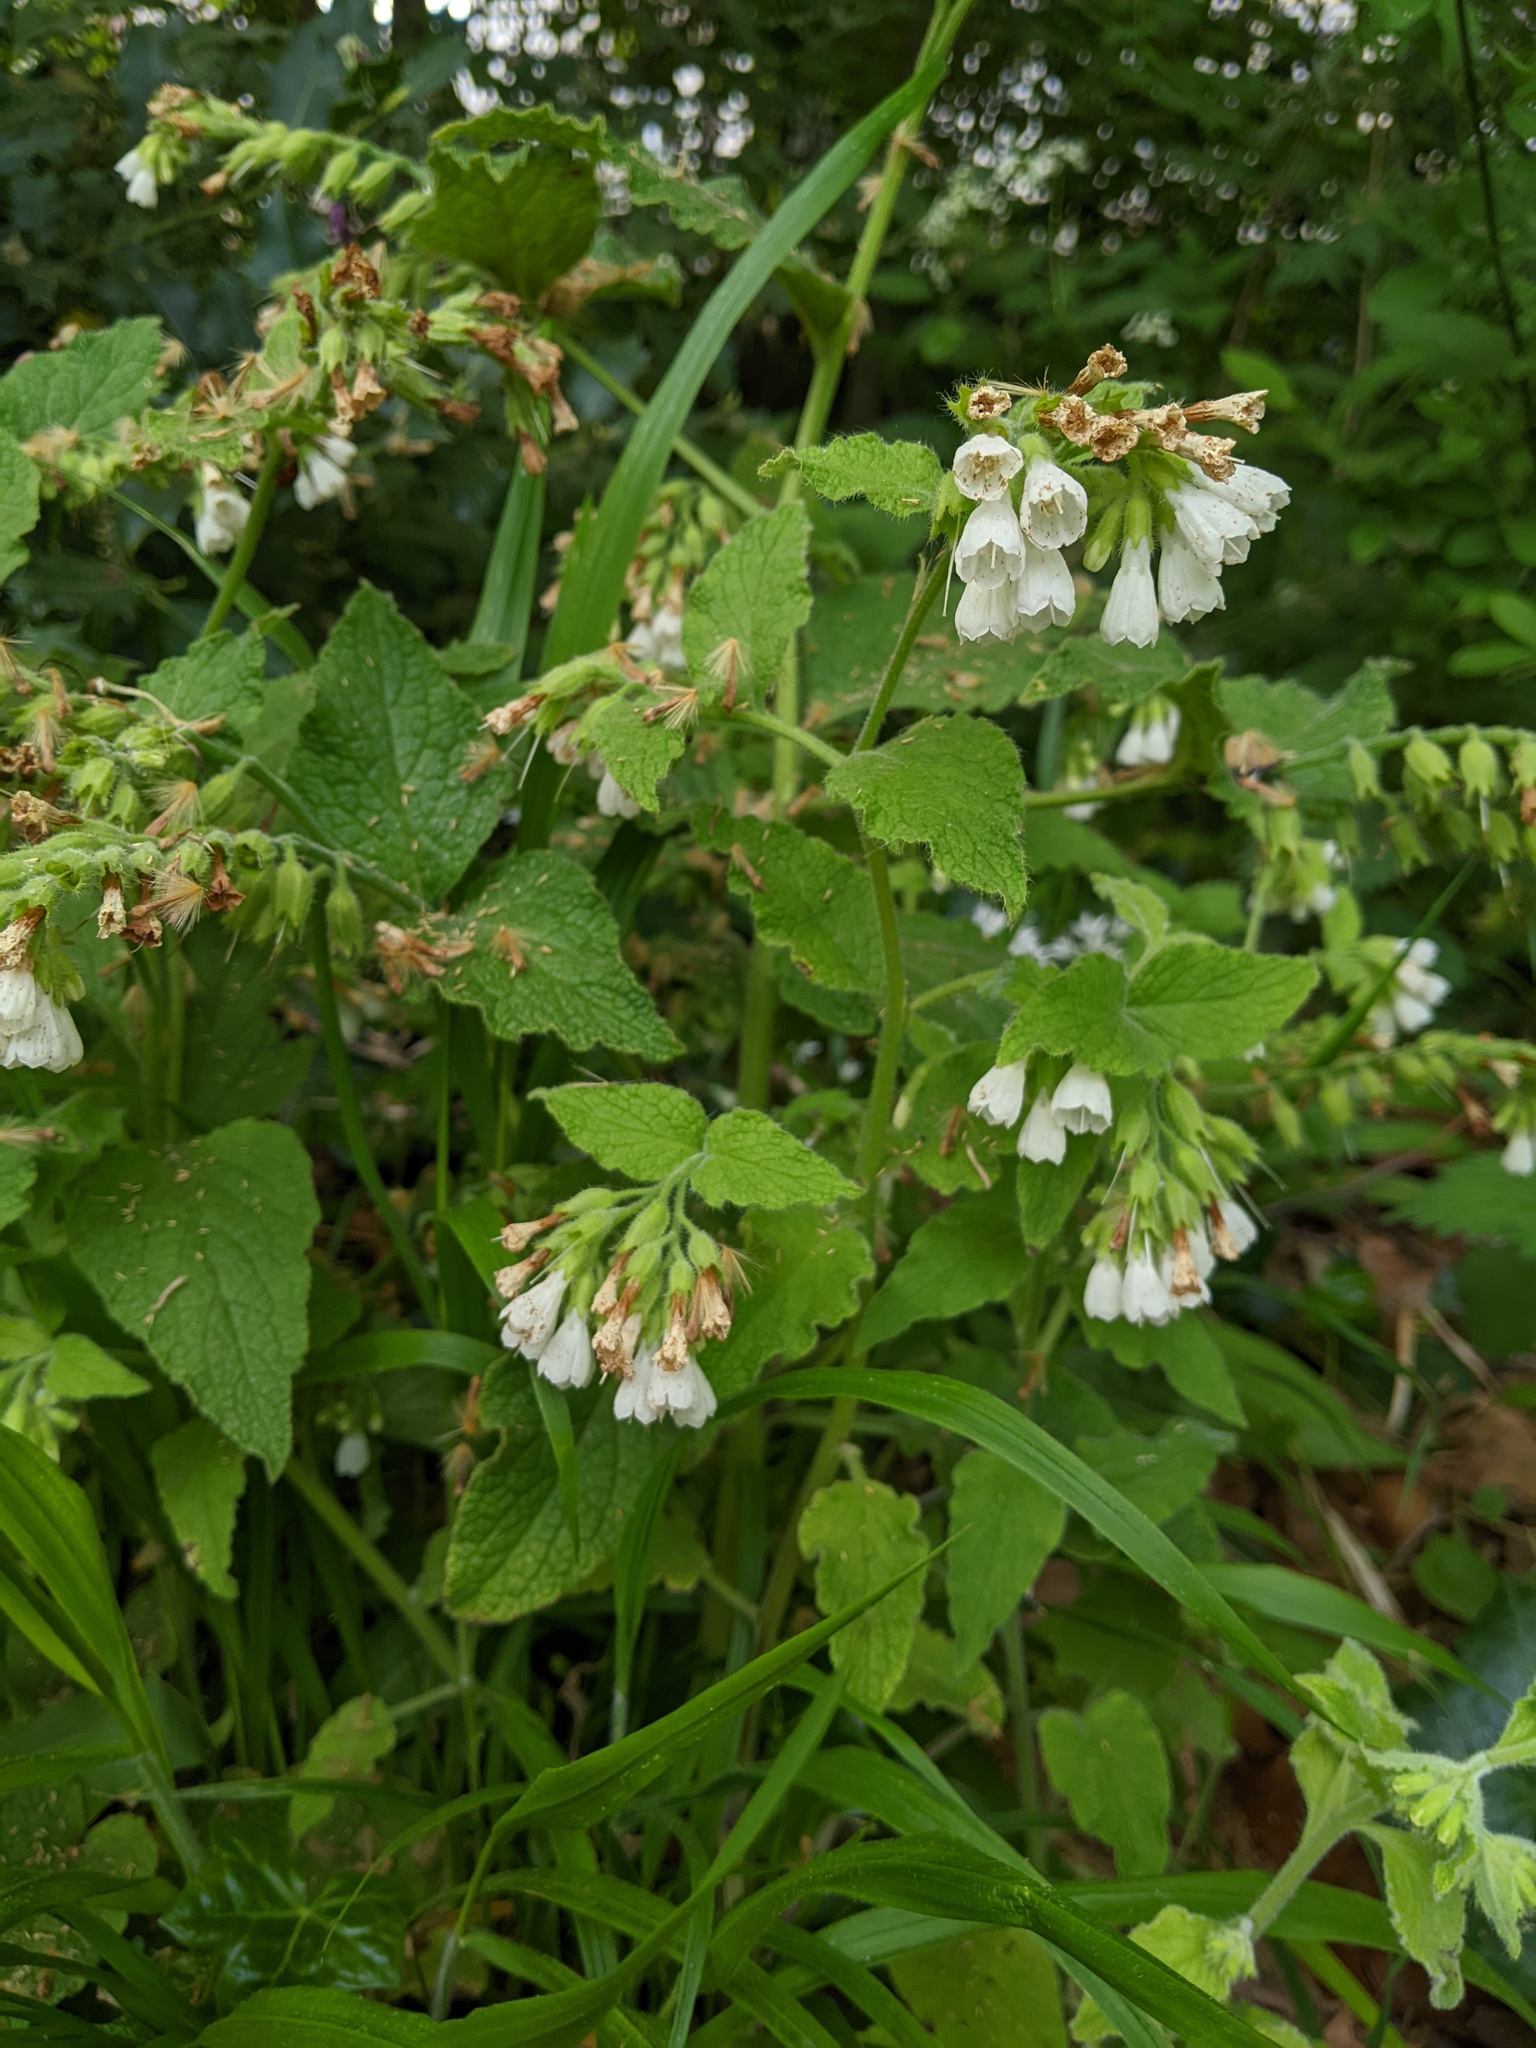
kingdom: Plantae
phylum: Tracheophyta
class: Magnoliopsida
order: Boraginales
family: Boraginaceae
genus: Symphytum
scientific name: Symphytum orientale
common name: White comfrey
